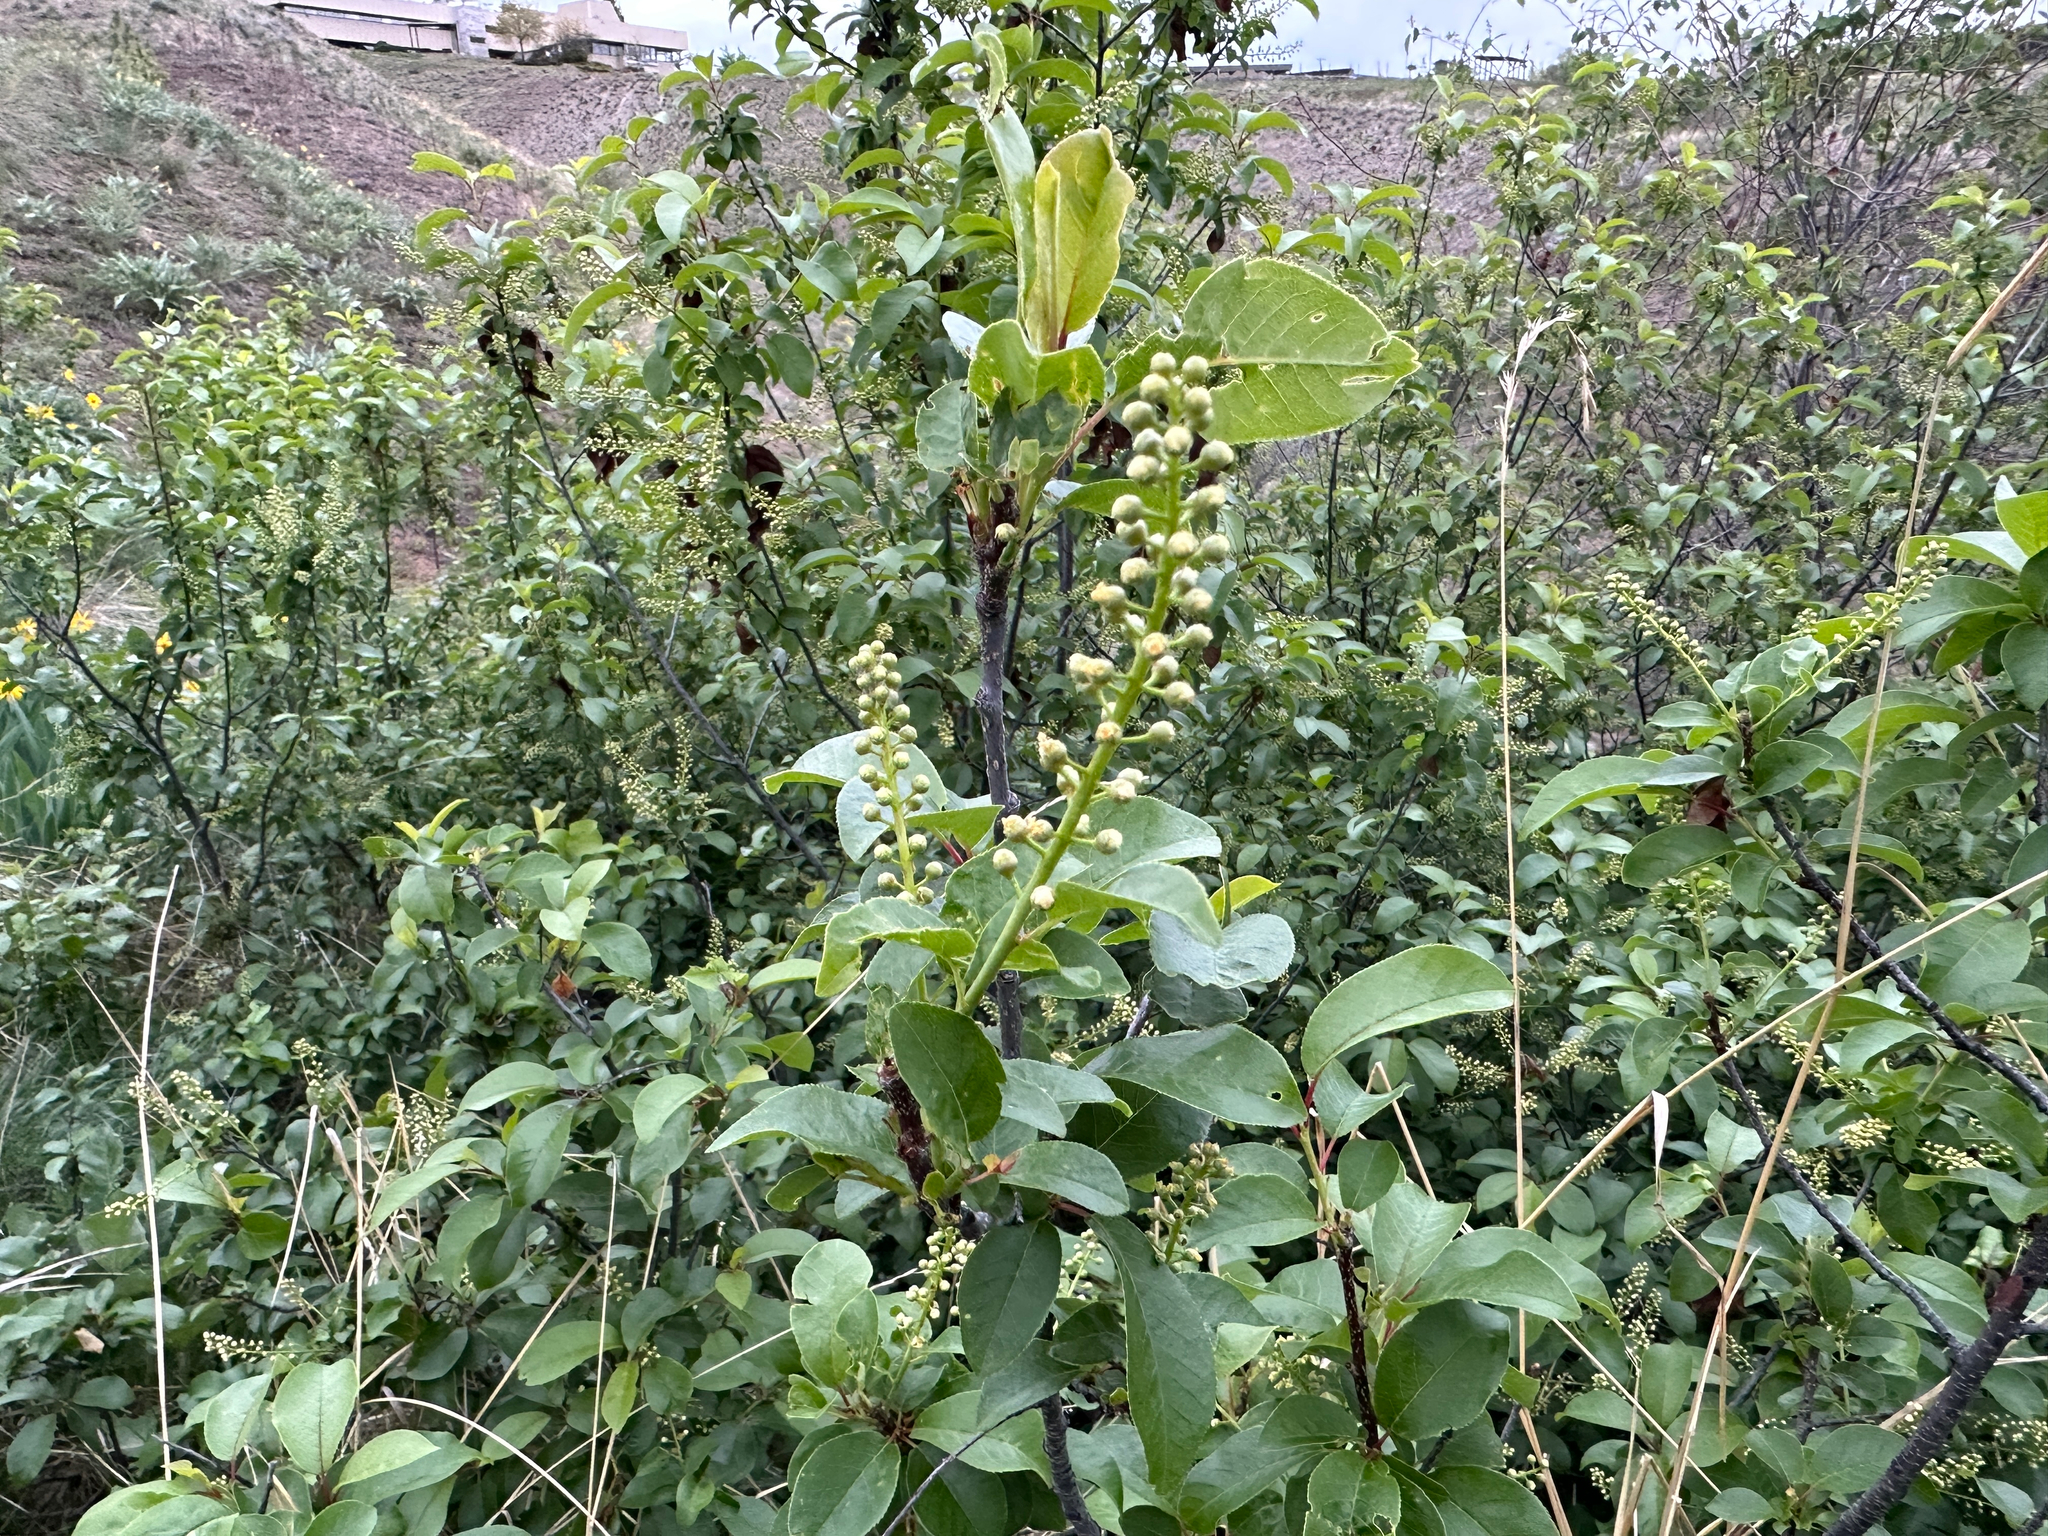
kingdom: Plantae
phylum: Tracheophyta
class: Magnoliopsida
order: Rosales
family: Rosaceae
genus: Prunus
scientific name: Prunus virginiana
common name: Chokecherry
